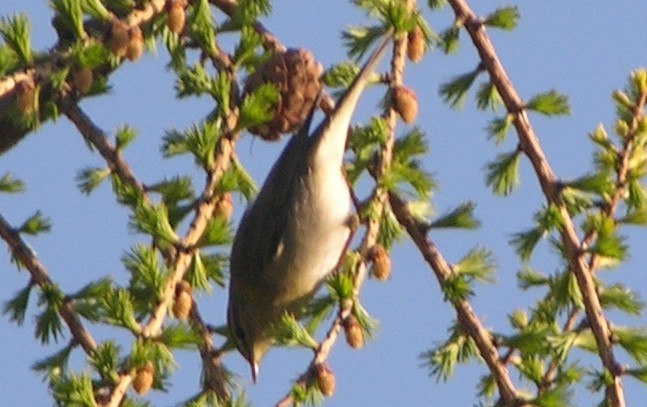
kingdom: Animalia
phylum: Chordata
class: Aves
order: Passeriformes
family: Phylloscopidae
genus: Phylloscopus
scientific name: Phylloscopus trochilus
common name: Willow warbler
